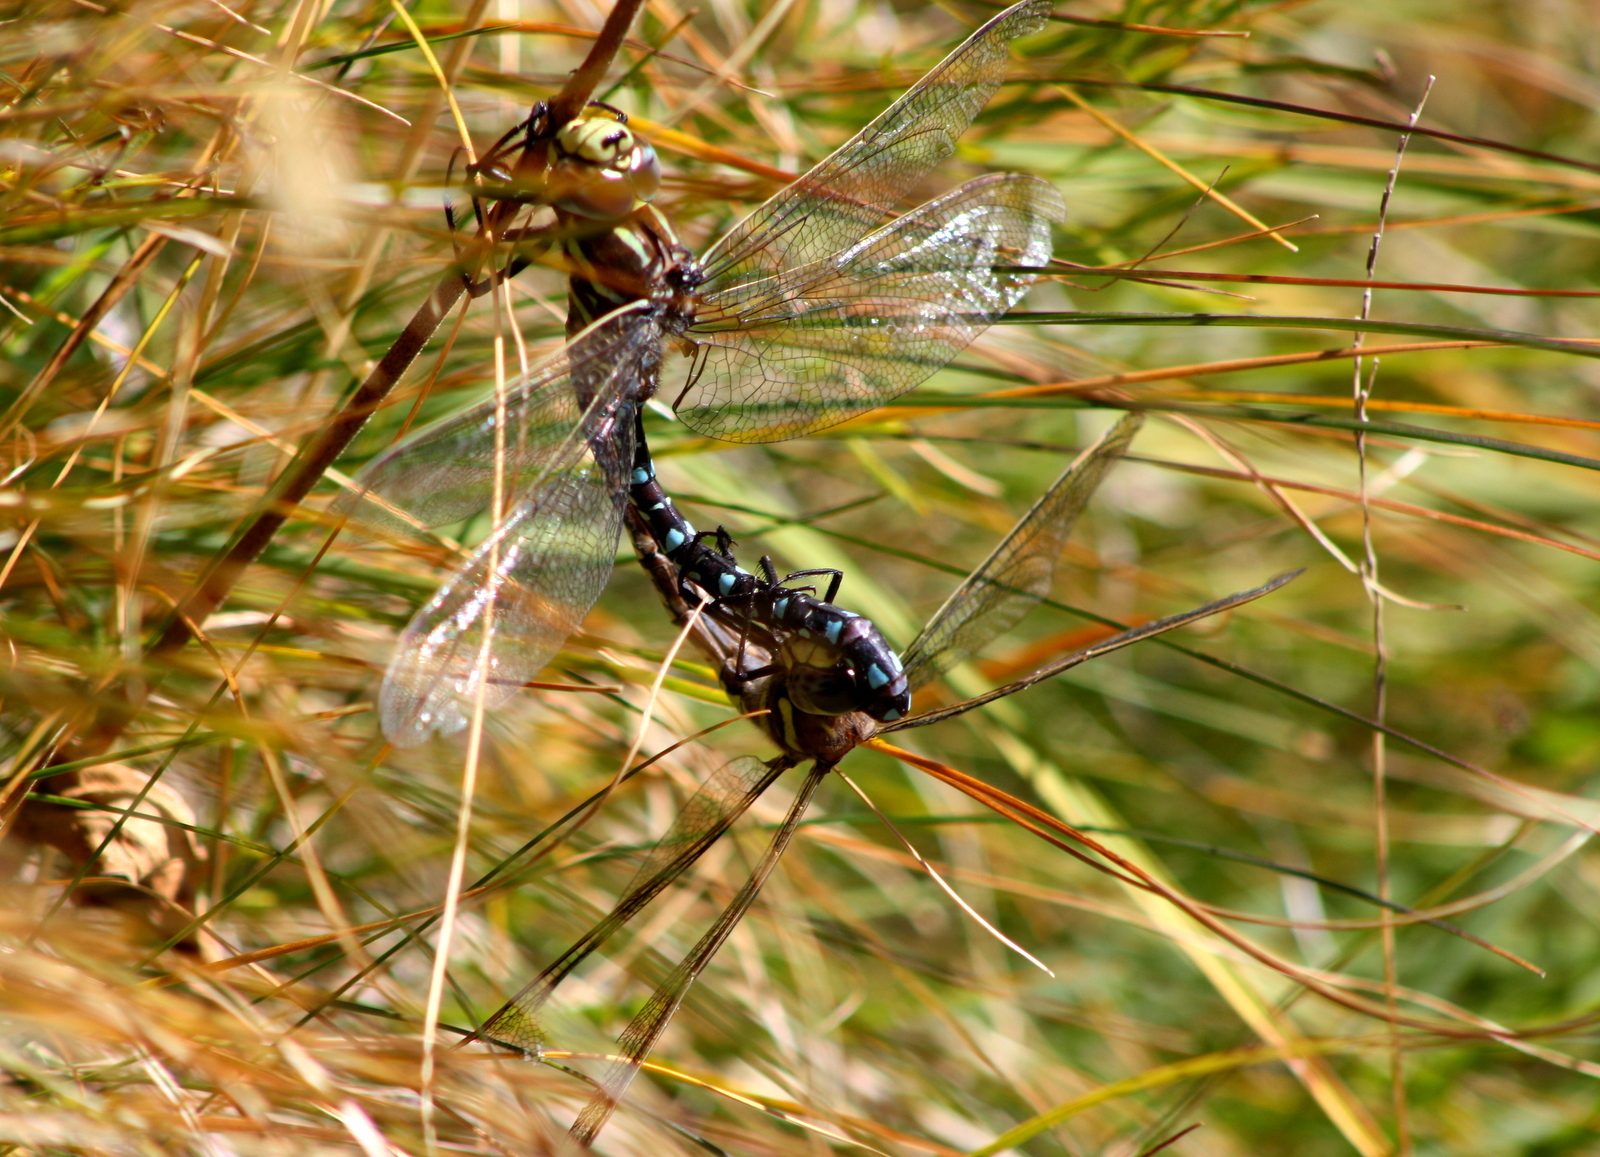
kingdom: Animalia
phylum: Arthropoda
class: Insecta
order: Odonata
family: Aeshnidae
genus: Aeshna
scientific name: Aeshna juncea
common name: Moorland hawker
